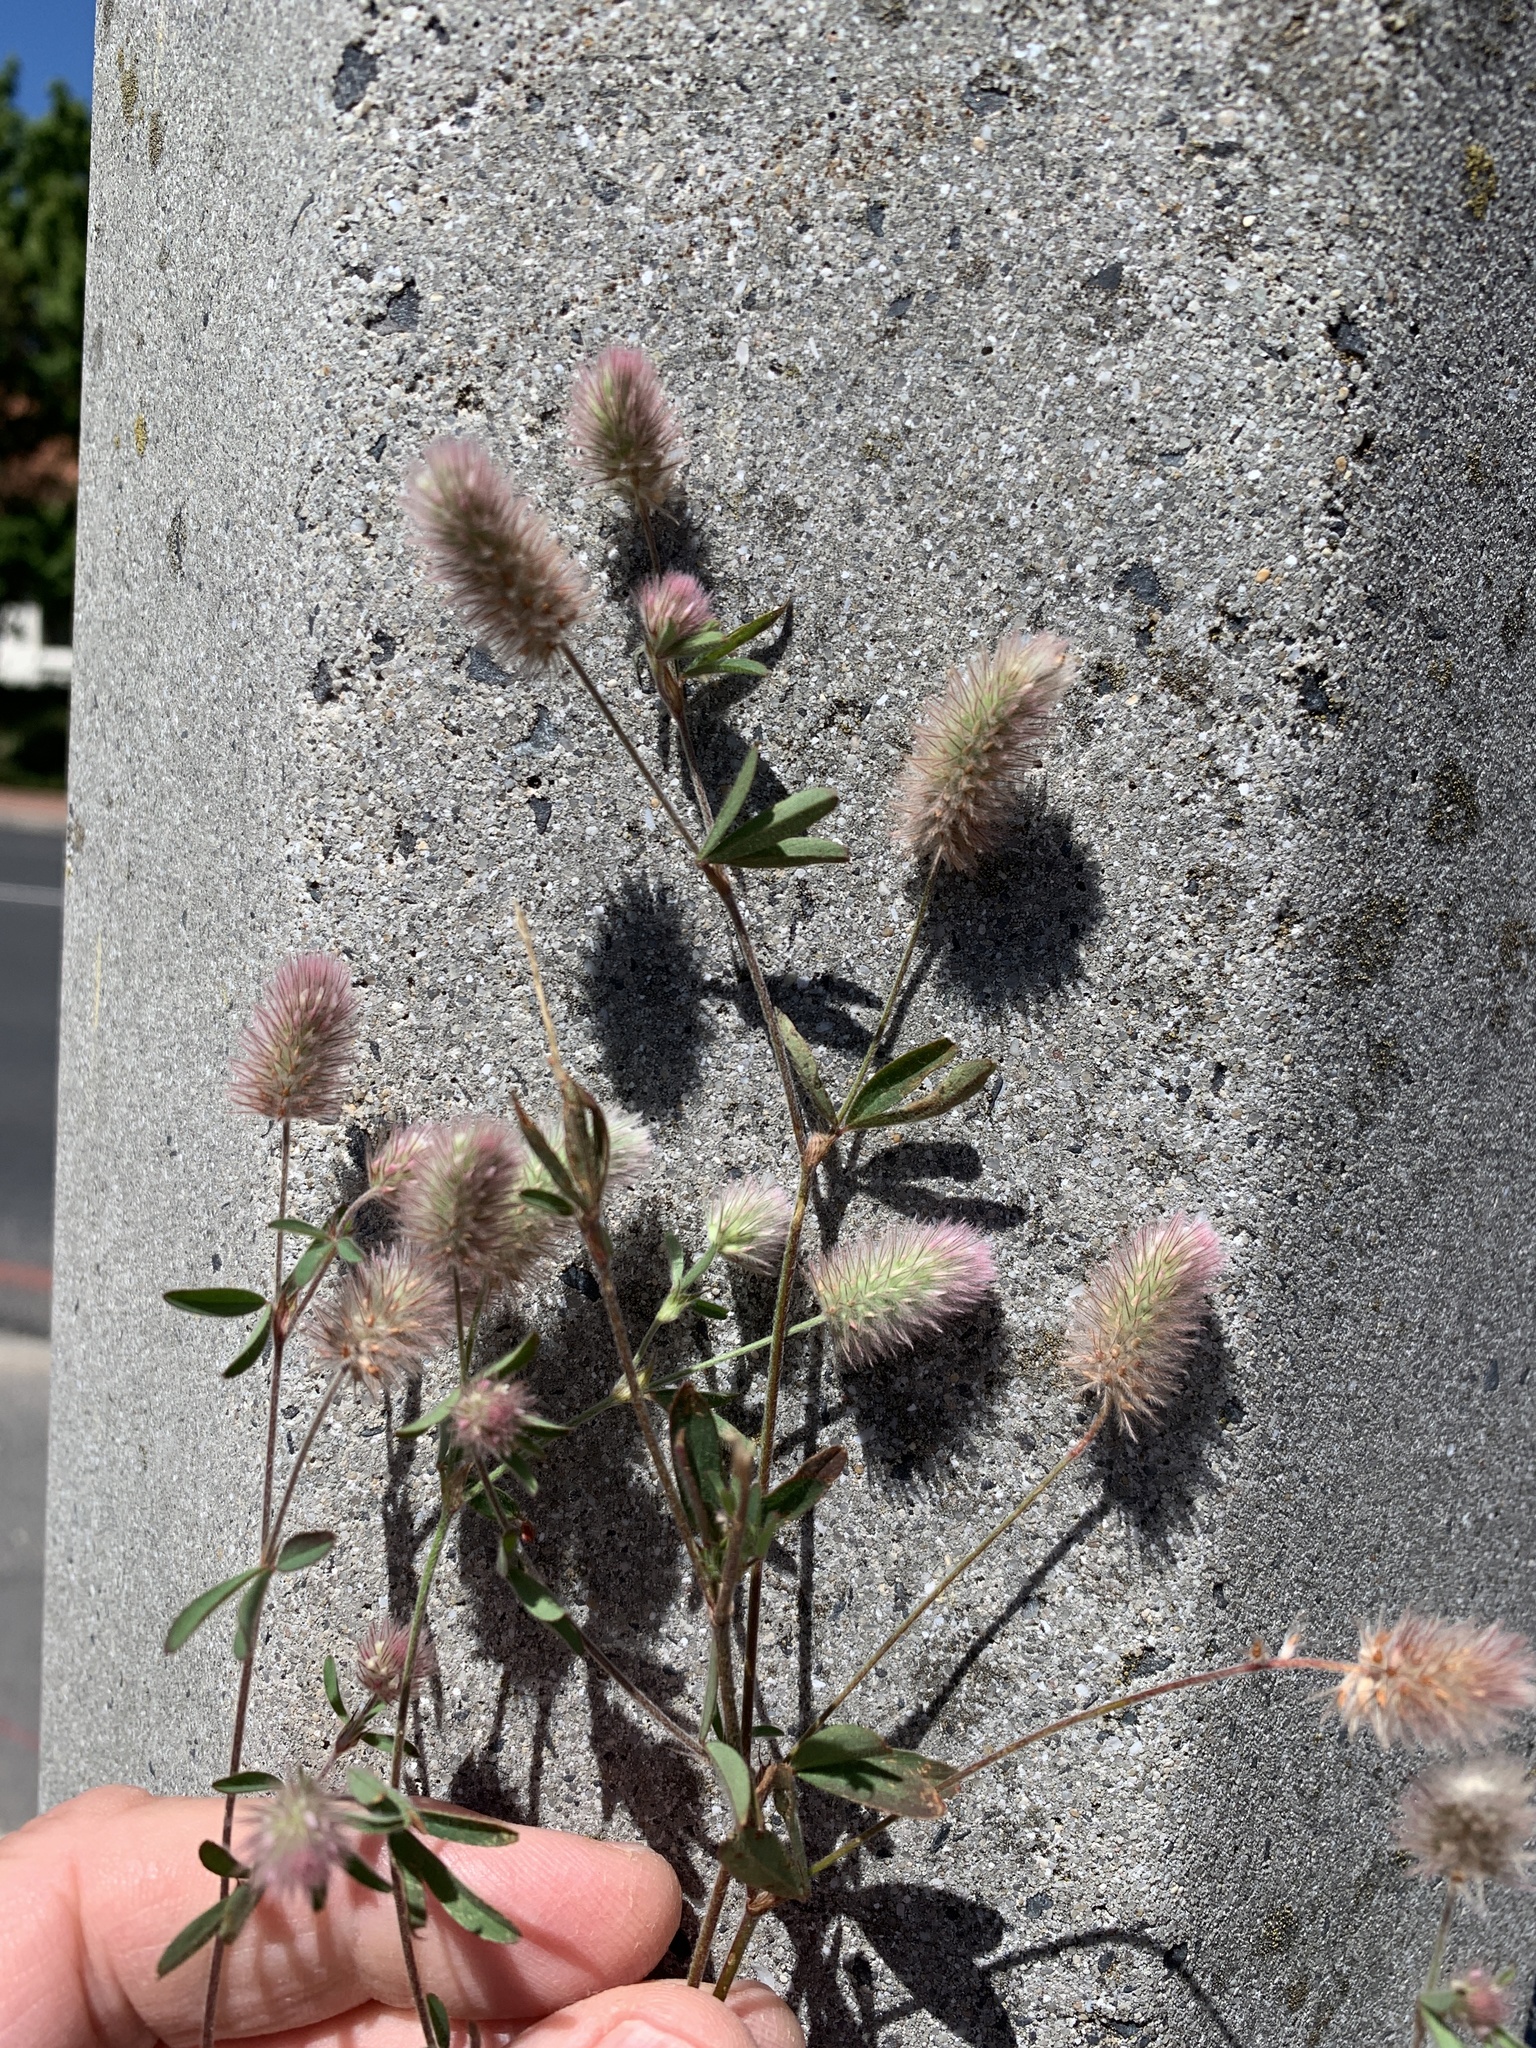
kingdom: Plantae
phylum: Tracheophyta
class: Magnoliopsida
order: Fabales
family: Fabaceae
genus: Trifolium
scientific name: Trifolium arvense
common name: Hare's-foot clover
